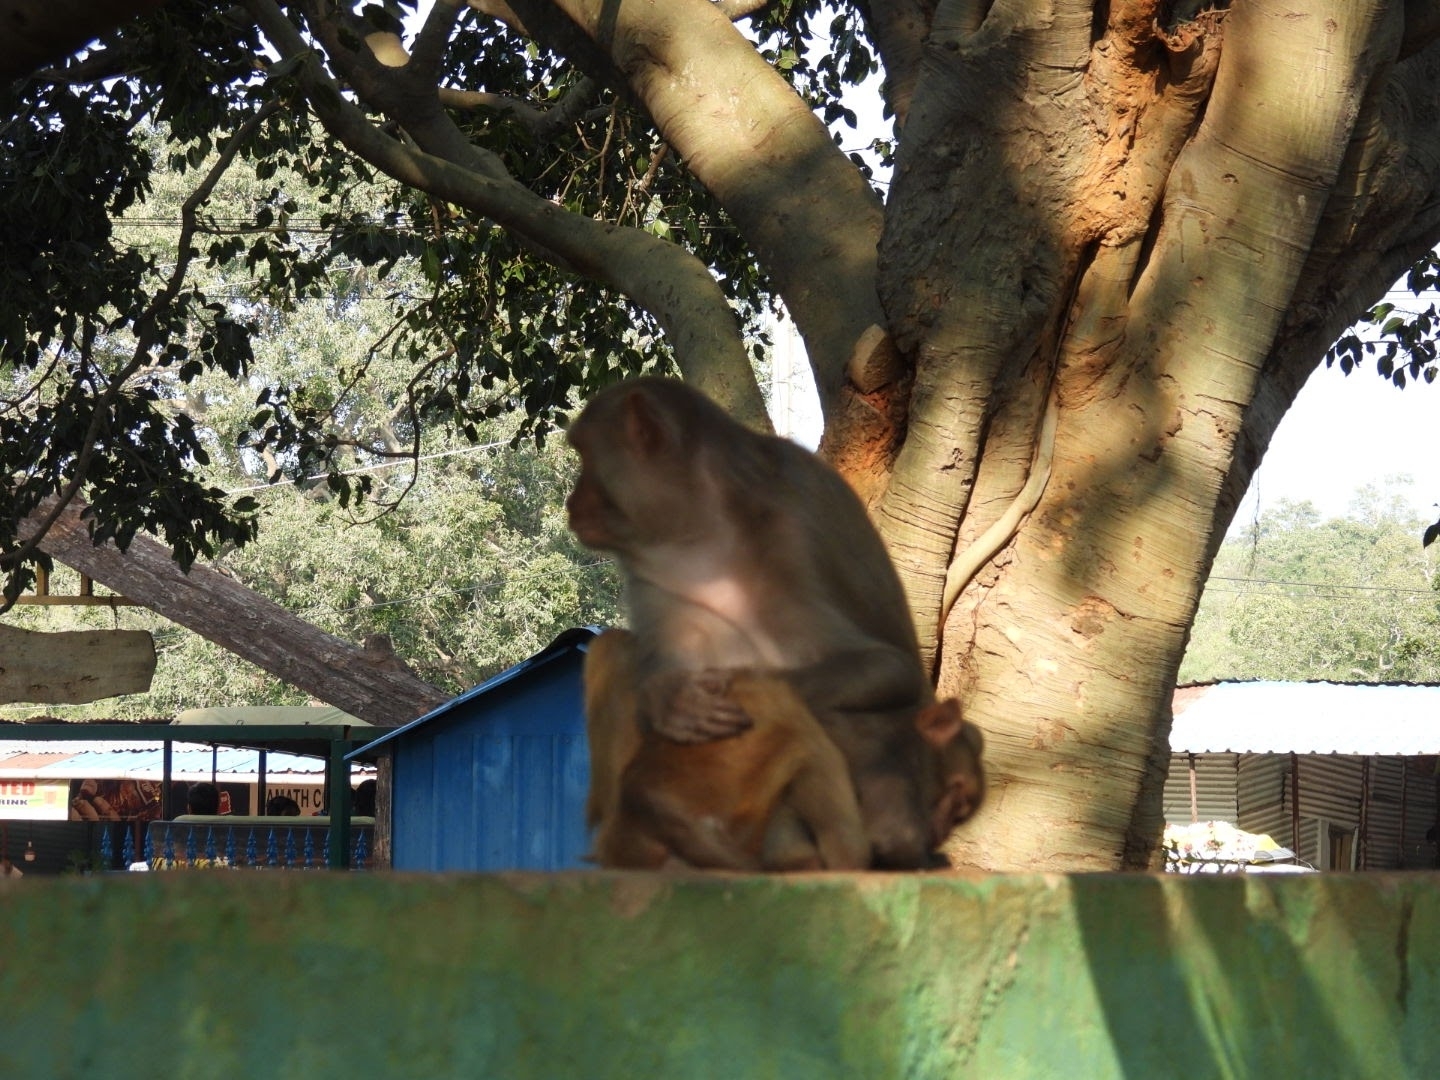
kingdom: Animalia
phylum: Chordata
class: Mammalia
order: Primates
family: Cercopithecidae
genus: Macaca
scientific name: Macaca mulatta
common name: Rhesus monkey
